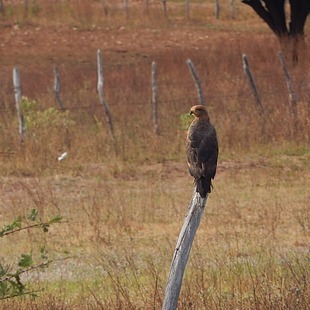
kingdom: Animalia
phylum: Chordata
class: Aves
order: Accipitriformes
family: Accipitridae
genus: Buteogallus
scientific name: Buteogallus meridionalis
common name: Savanna hawk
